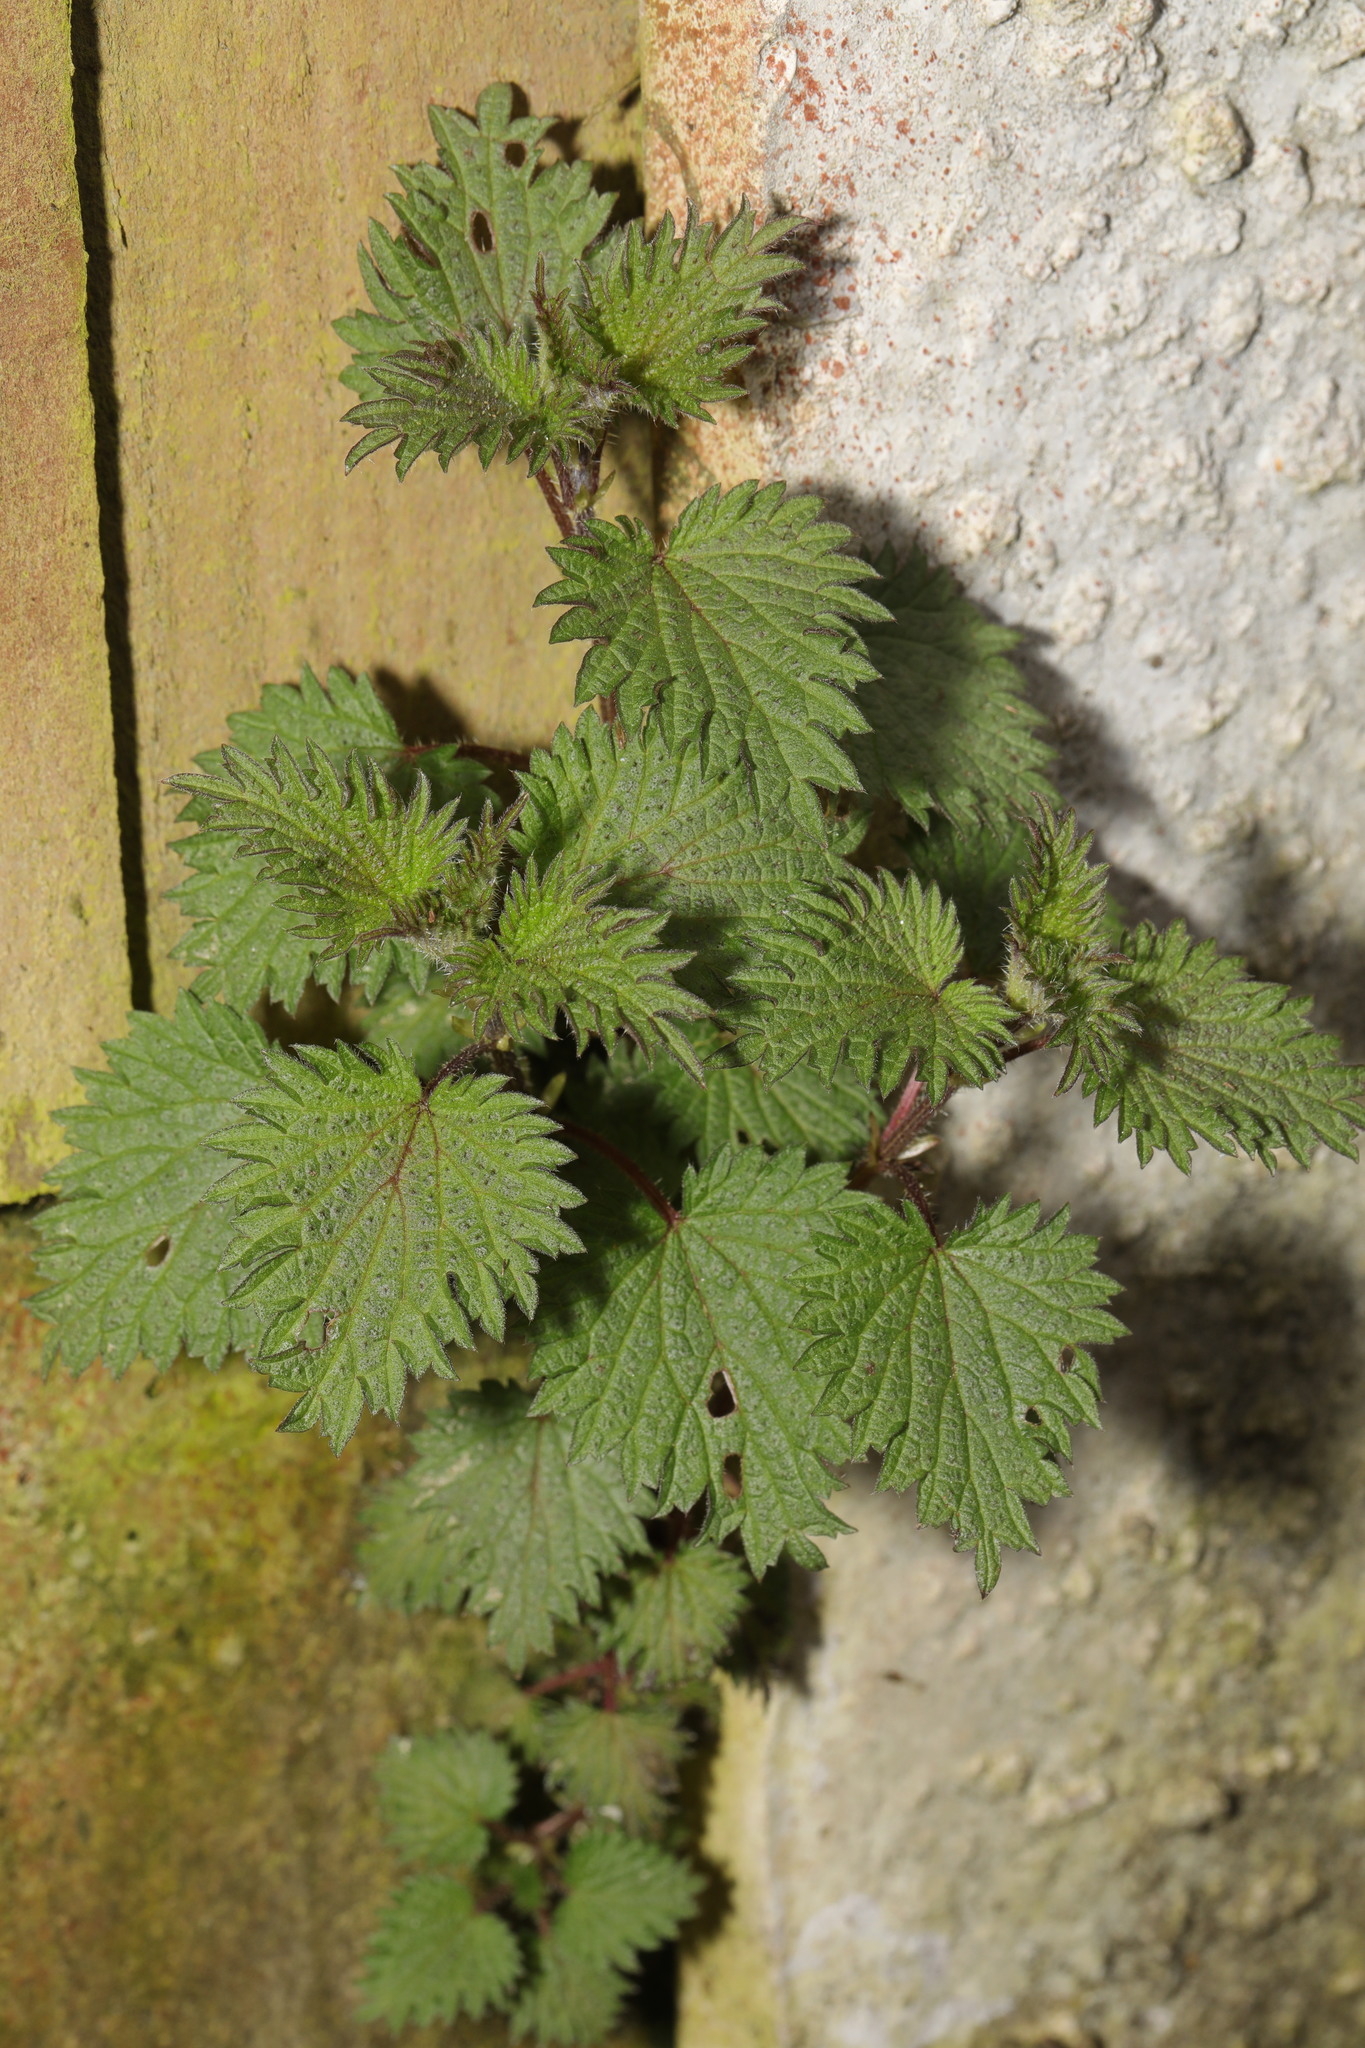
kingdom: Plantae
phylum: Tracheophyta
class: Magnoliopsida
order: Rosales
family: Urticaceae
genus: Urtica
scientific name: Urtica dioica
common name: Common nettle
